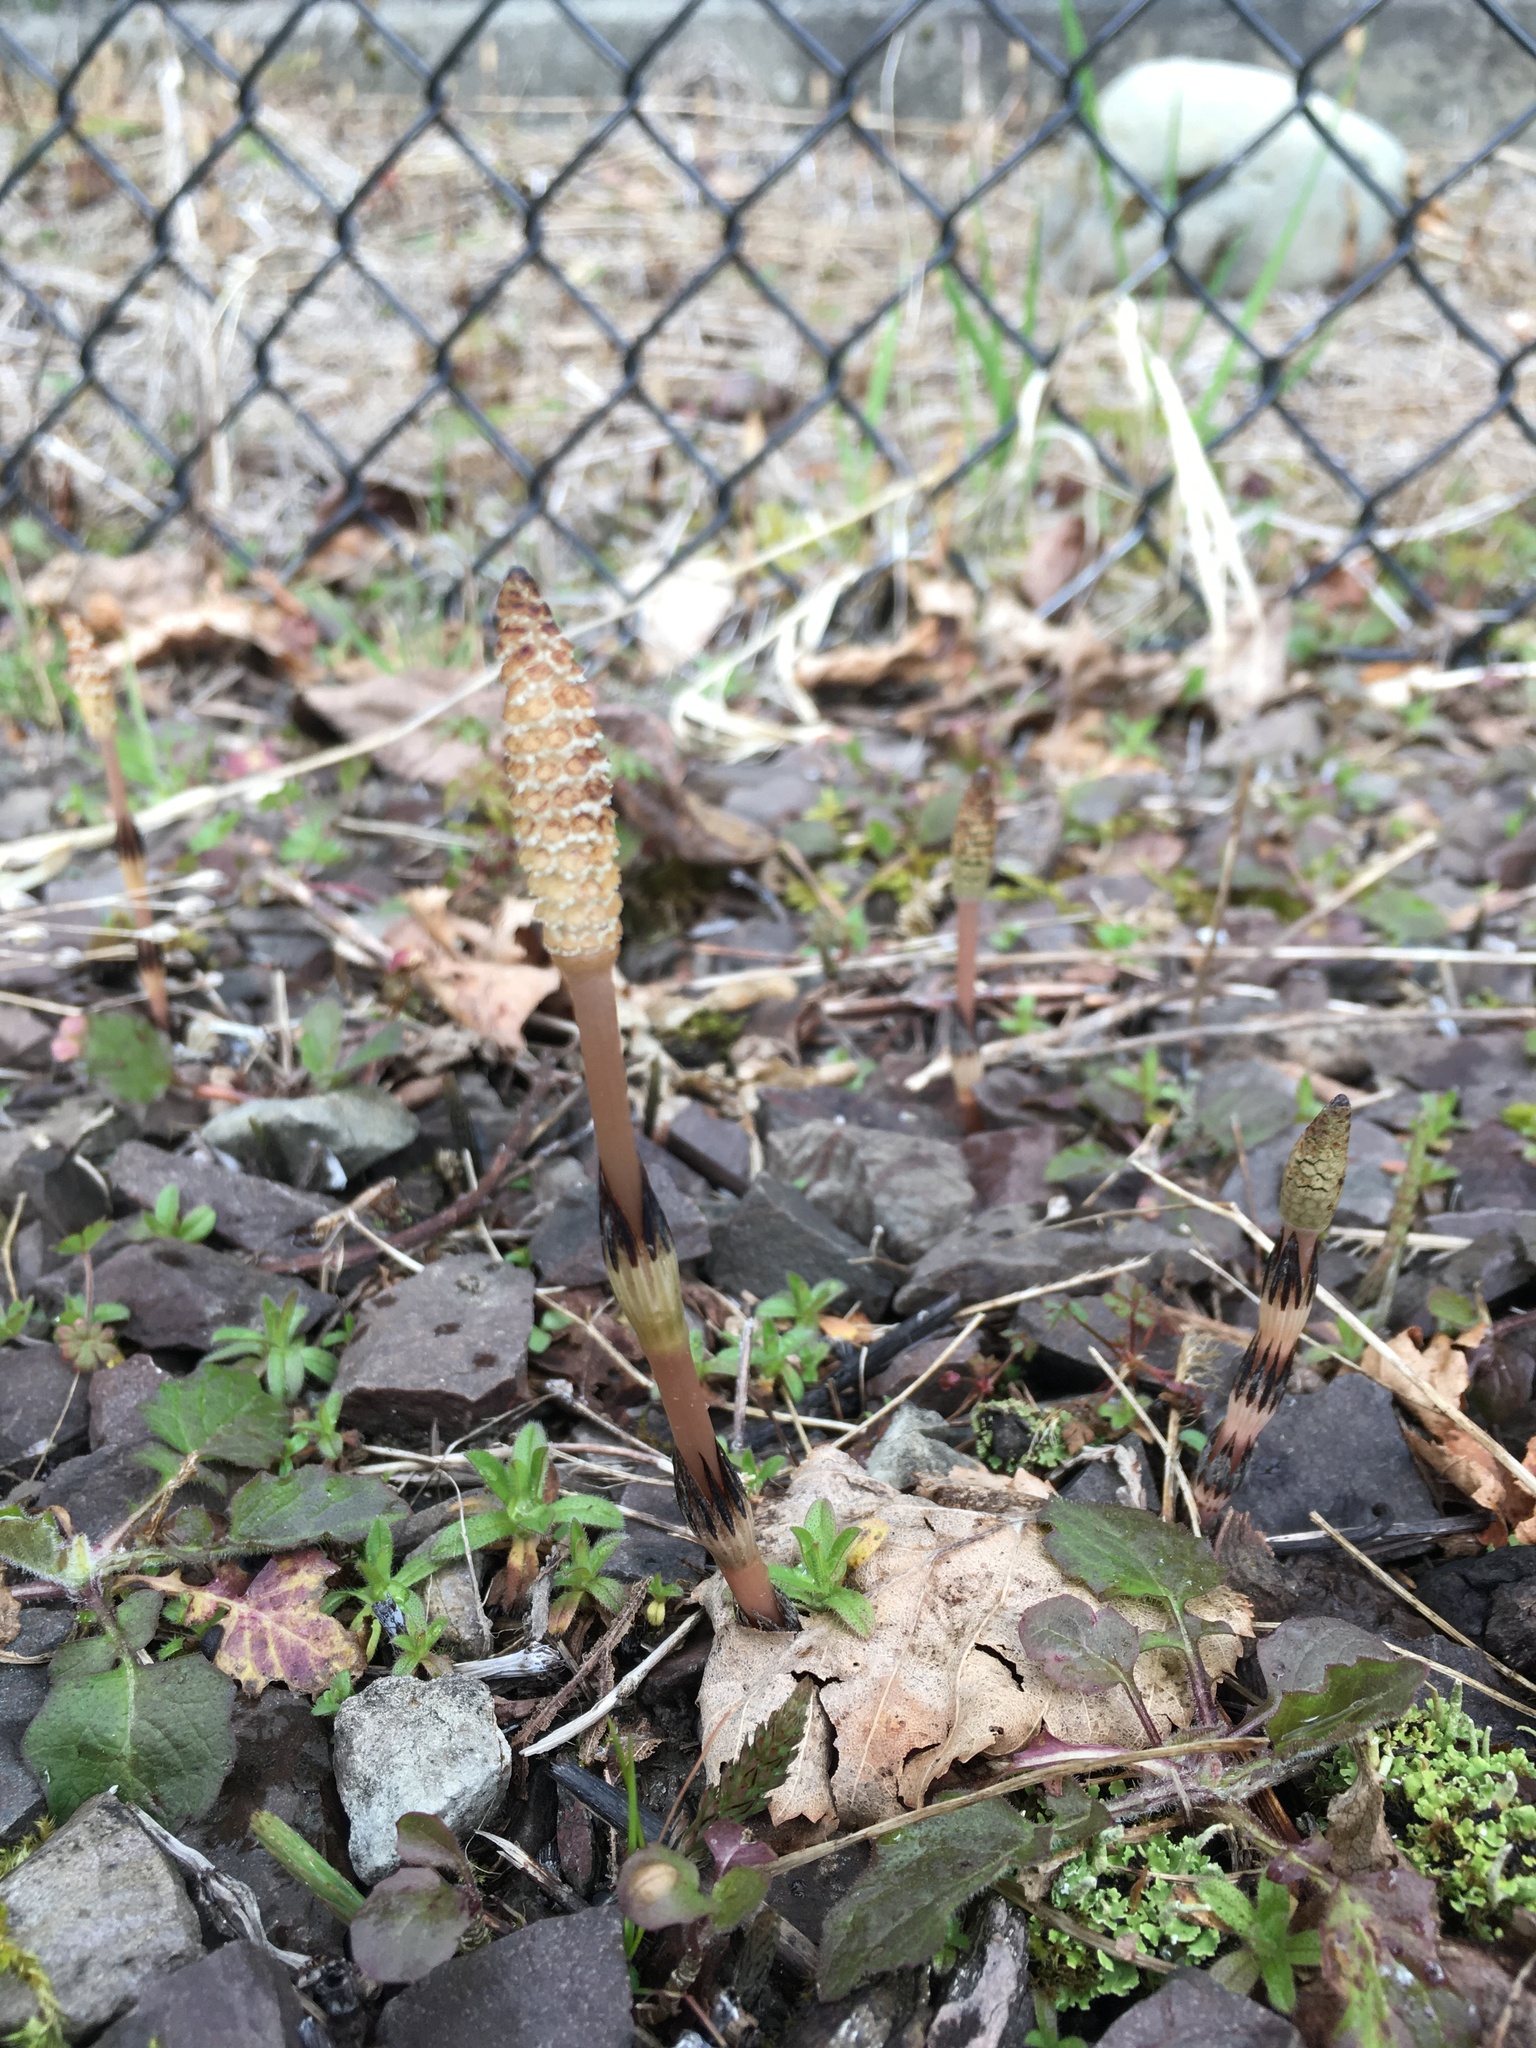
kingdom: Plantae
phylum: Tracheophyta
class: Polypodiopsida
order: Equisetales
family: Equisetaceae
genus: Equisetum
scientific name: Equisetum arvense
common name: Field horsetail
